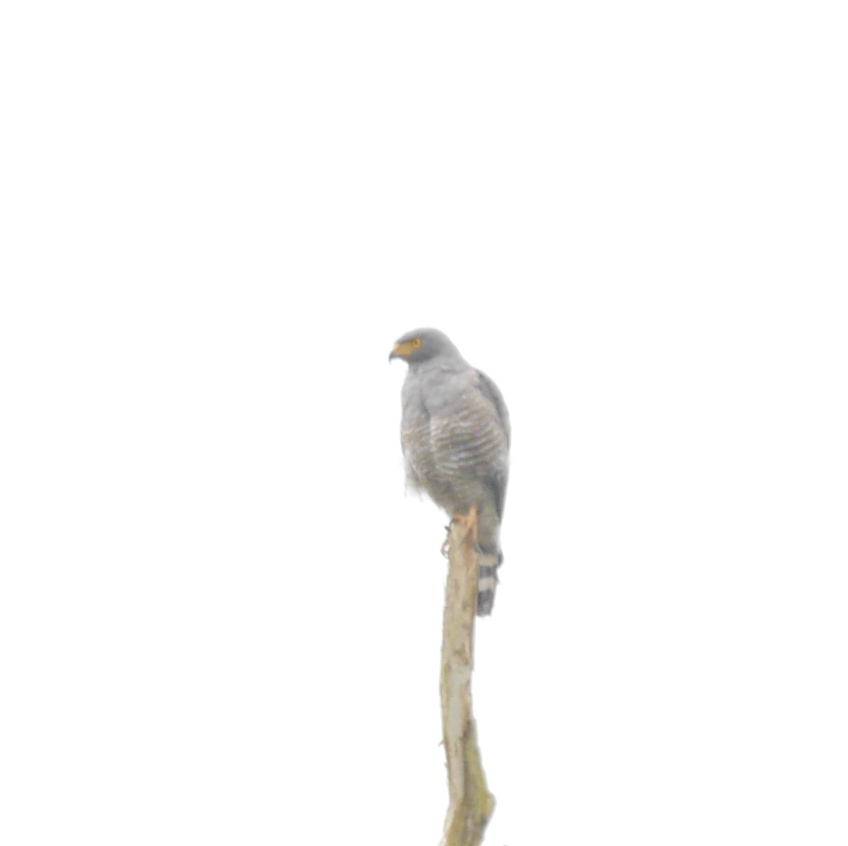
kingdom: Animalia
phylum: Chordata
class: Aves
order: Accipitriformes
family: Accipitridae
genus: Rupornis
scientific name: Rupornis magnirostris
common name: Roadside hawk
